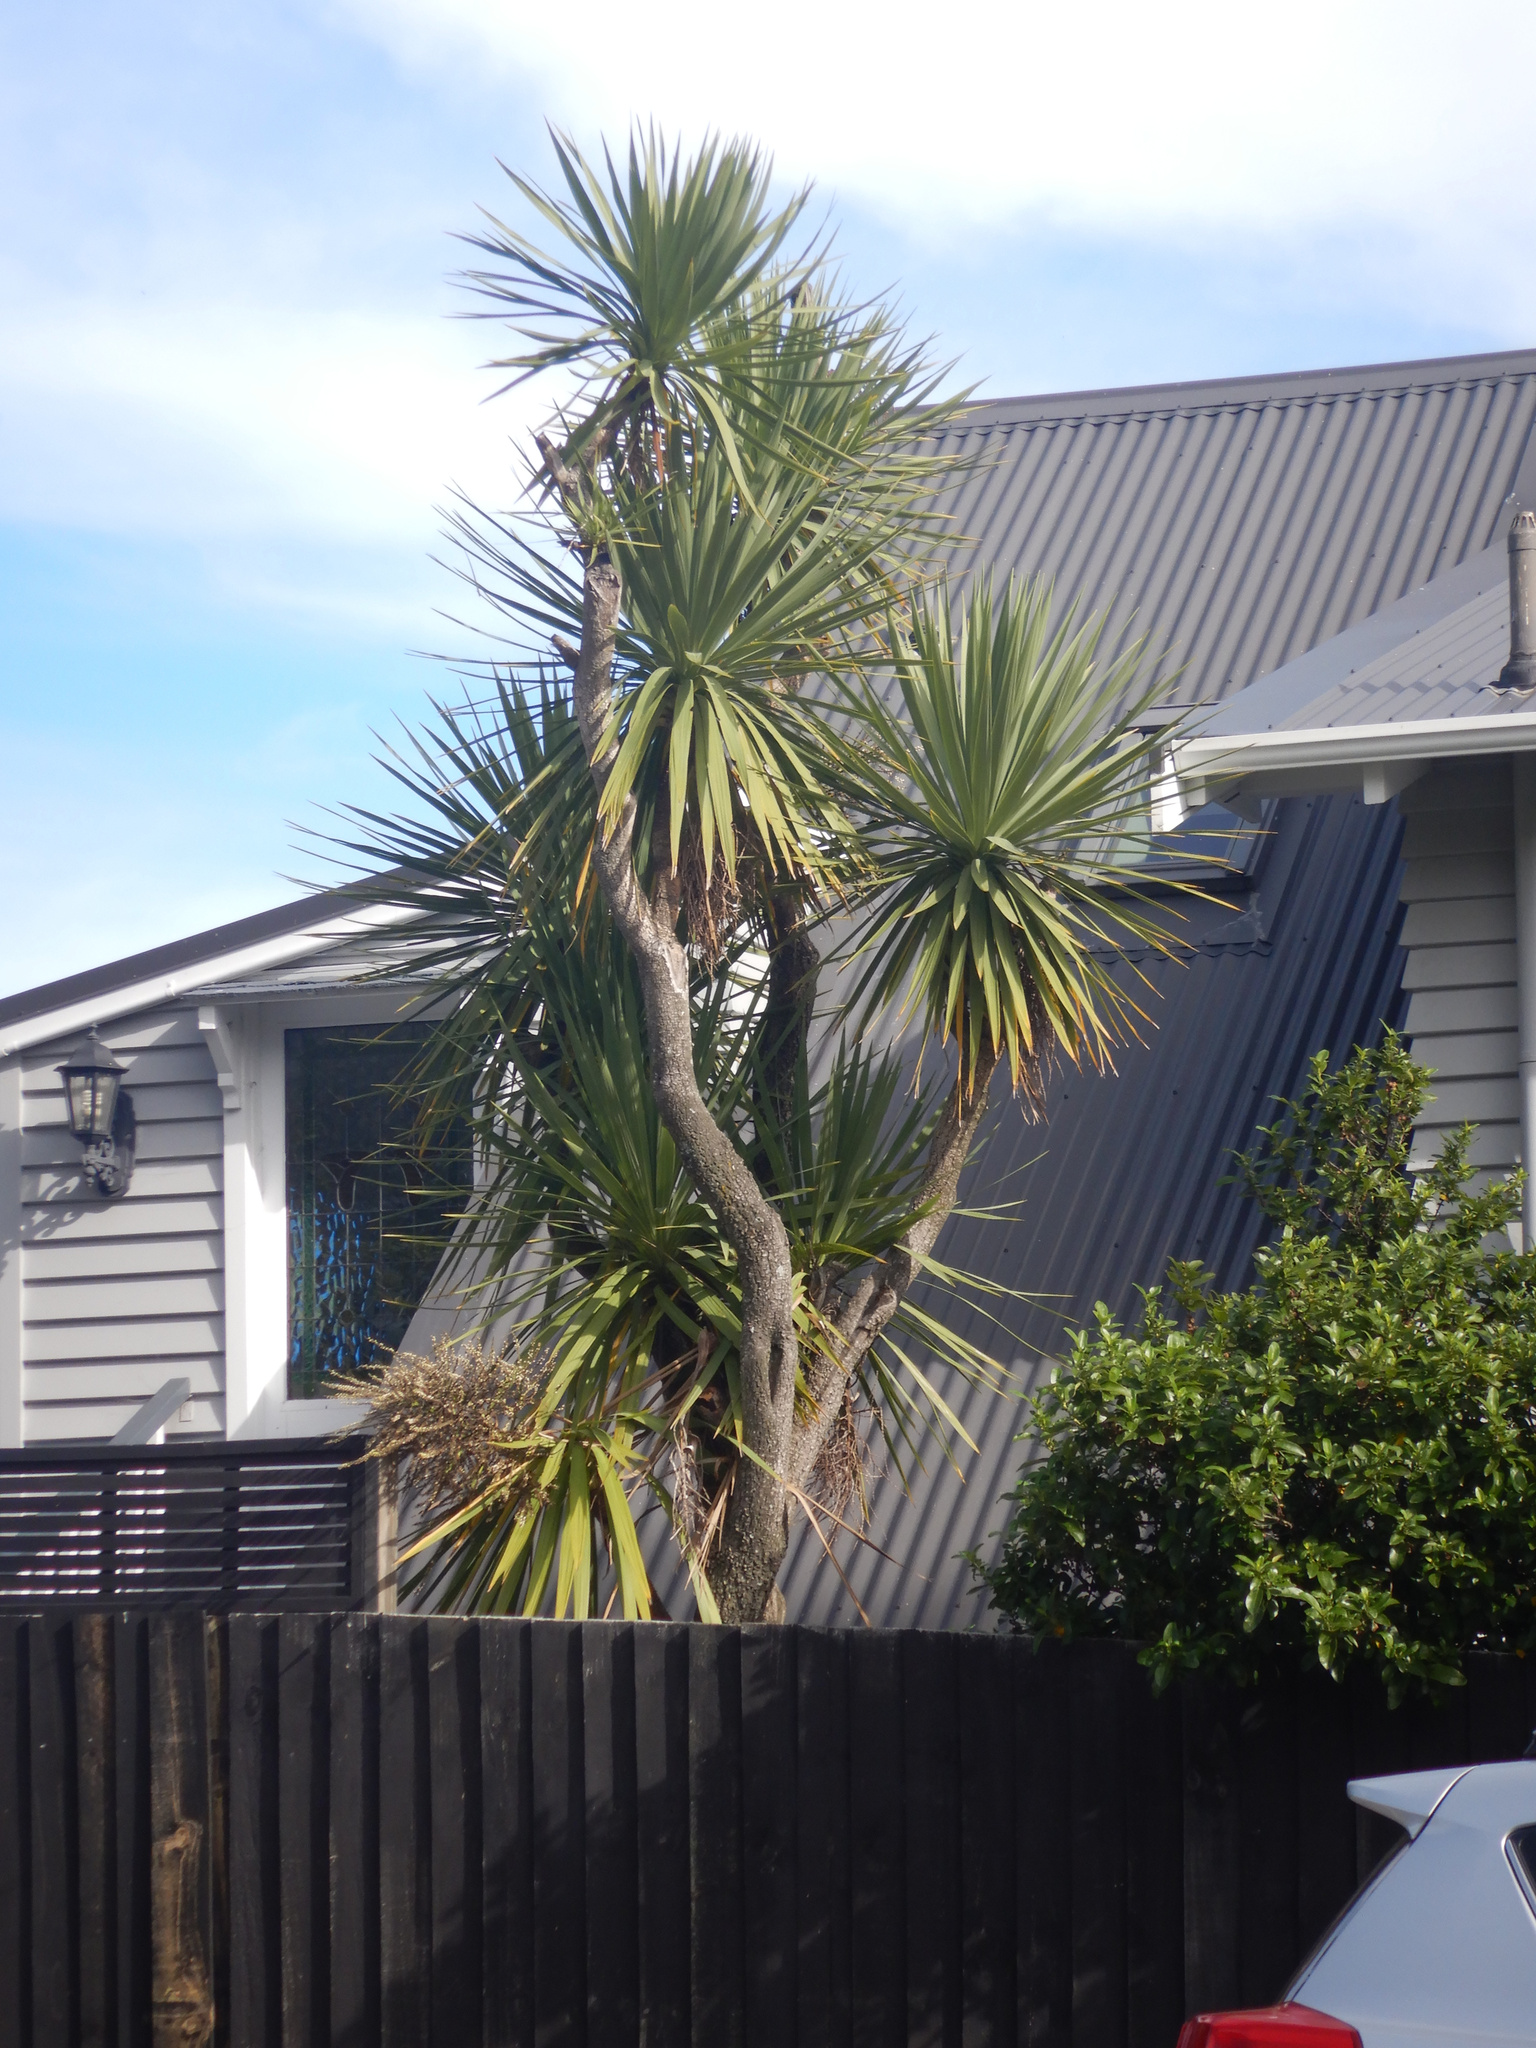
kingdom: Plantae
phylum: Tracheophyta
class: Liliopsida
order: Asparagales
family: Asparagaceae
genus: Cordyline
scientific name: Cordyline australis
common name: Cabbage-palm
